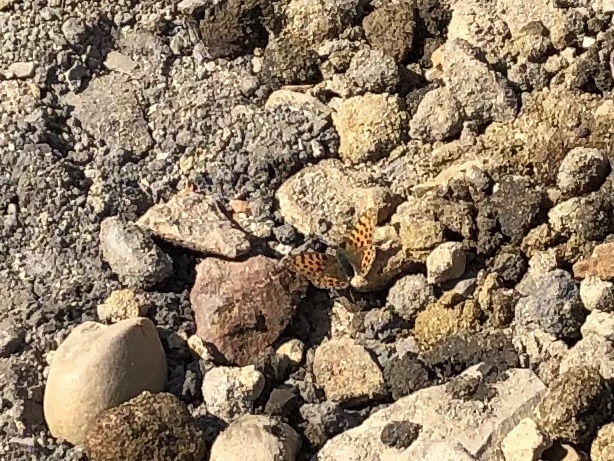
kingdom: Animalia
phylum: Arthropoda
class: Insecta
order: Lepidoptera
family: Nymphalidae
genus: Issoria
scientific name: Issoria lathonia
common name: Queen of spain fritillary
